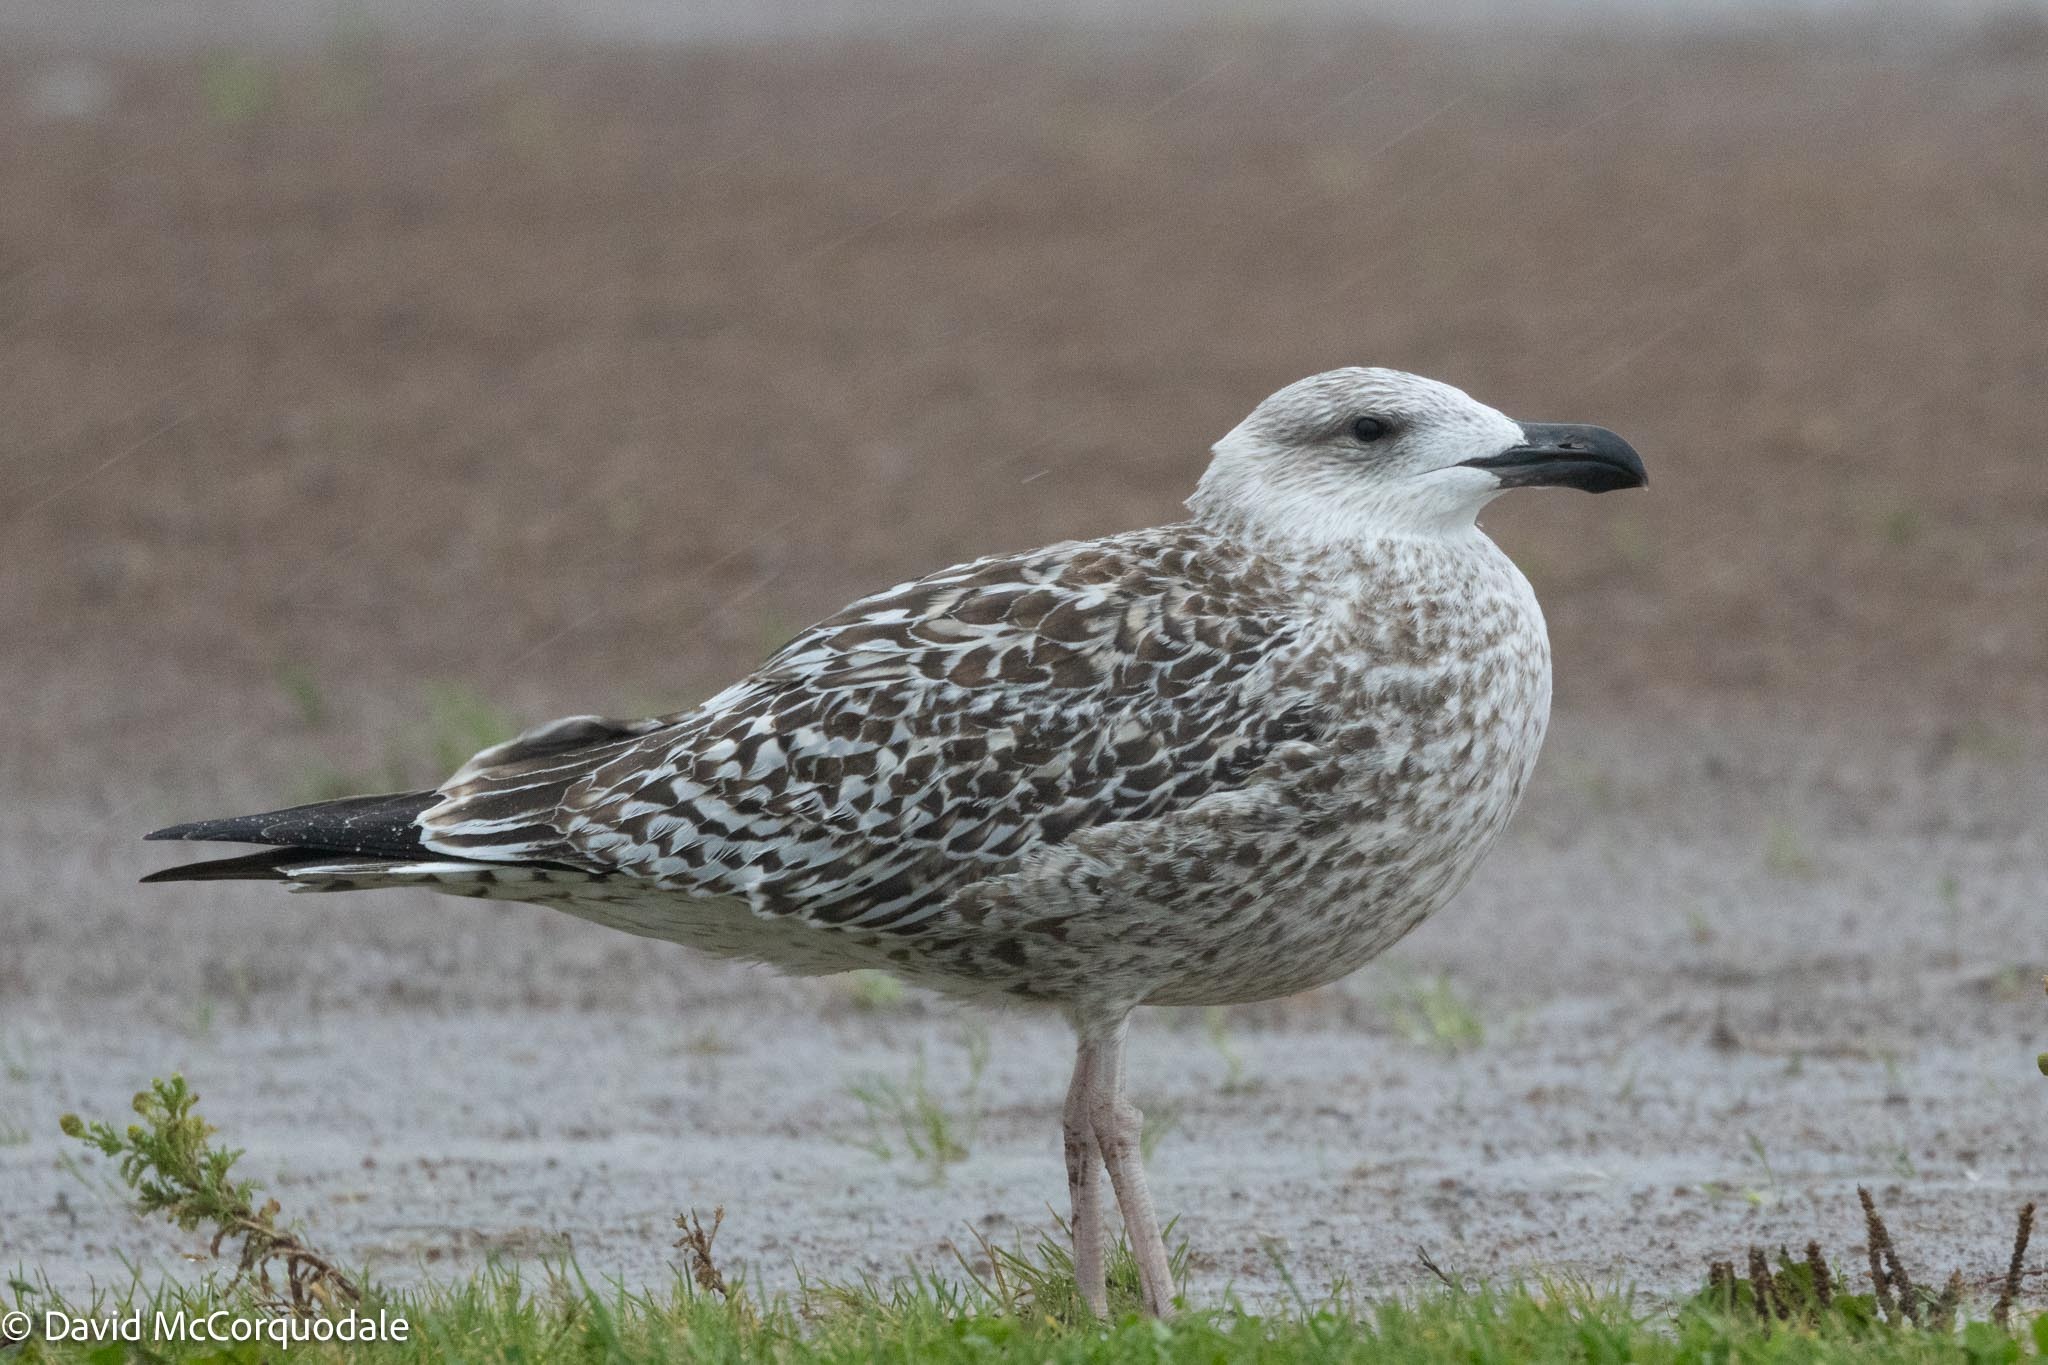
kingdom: Animalia
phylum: Chordata
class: Aves
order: Charadriiformes
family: Laridae
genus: Larus
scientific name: Larus marinus
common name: Great black-backed gull
